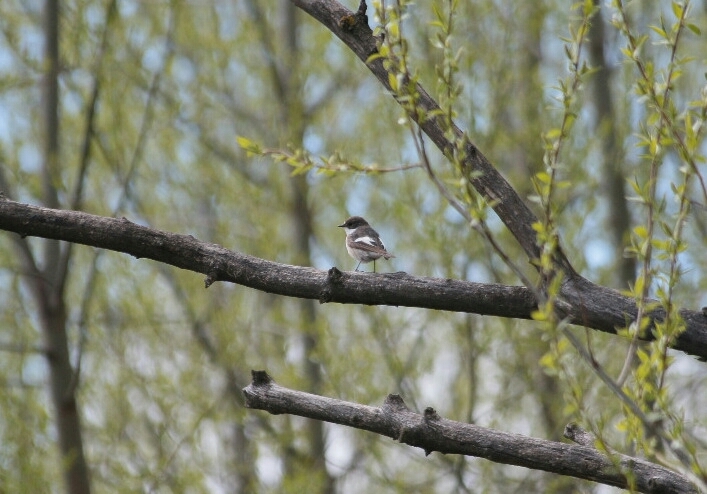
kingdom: Animalia
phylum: Chordata
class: Aves
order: Passeriformes
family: Muscicapidae
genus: Ficedula
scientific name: Ficedula hypoleuca
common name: European pied flycatcher
